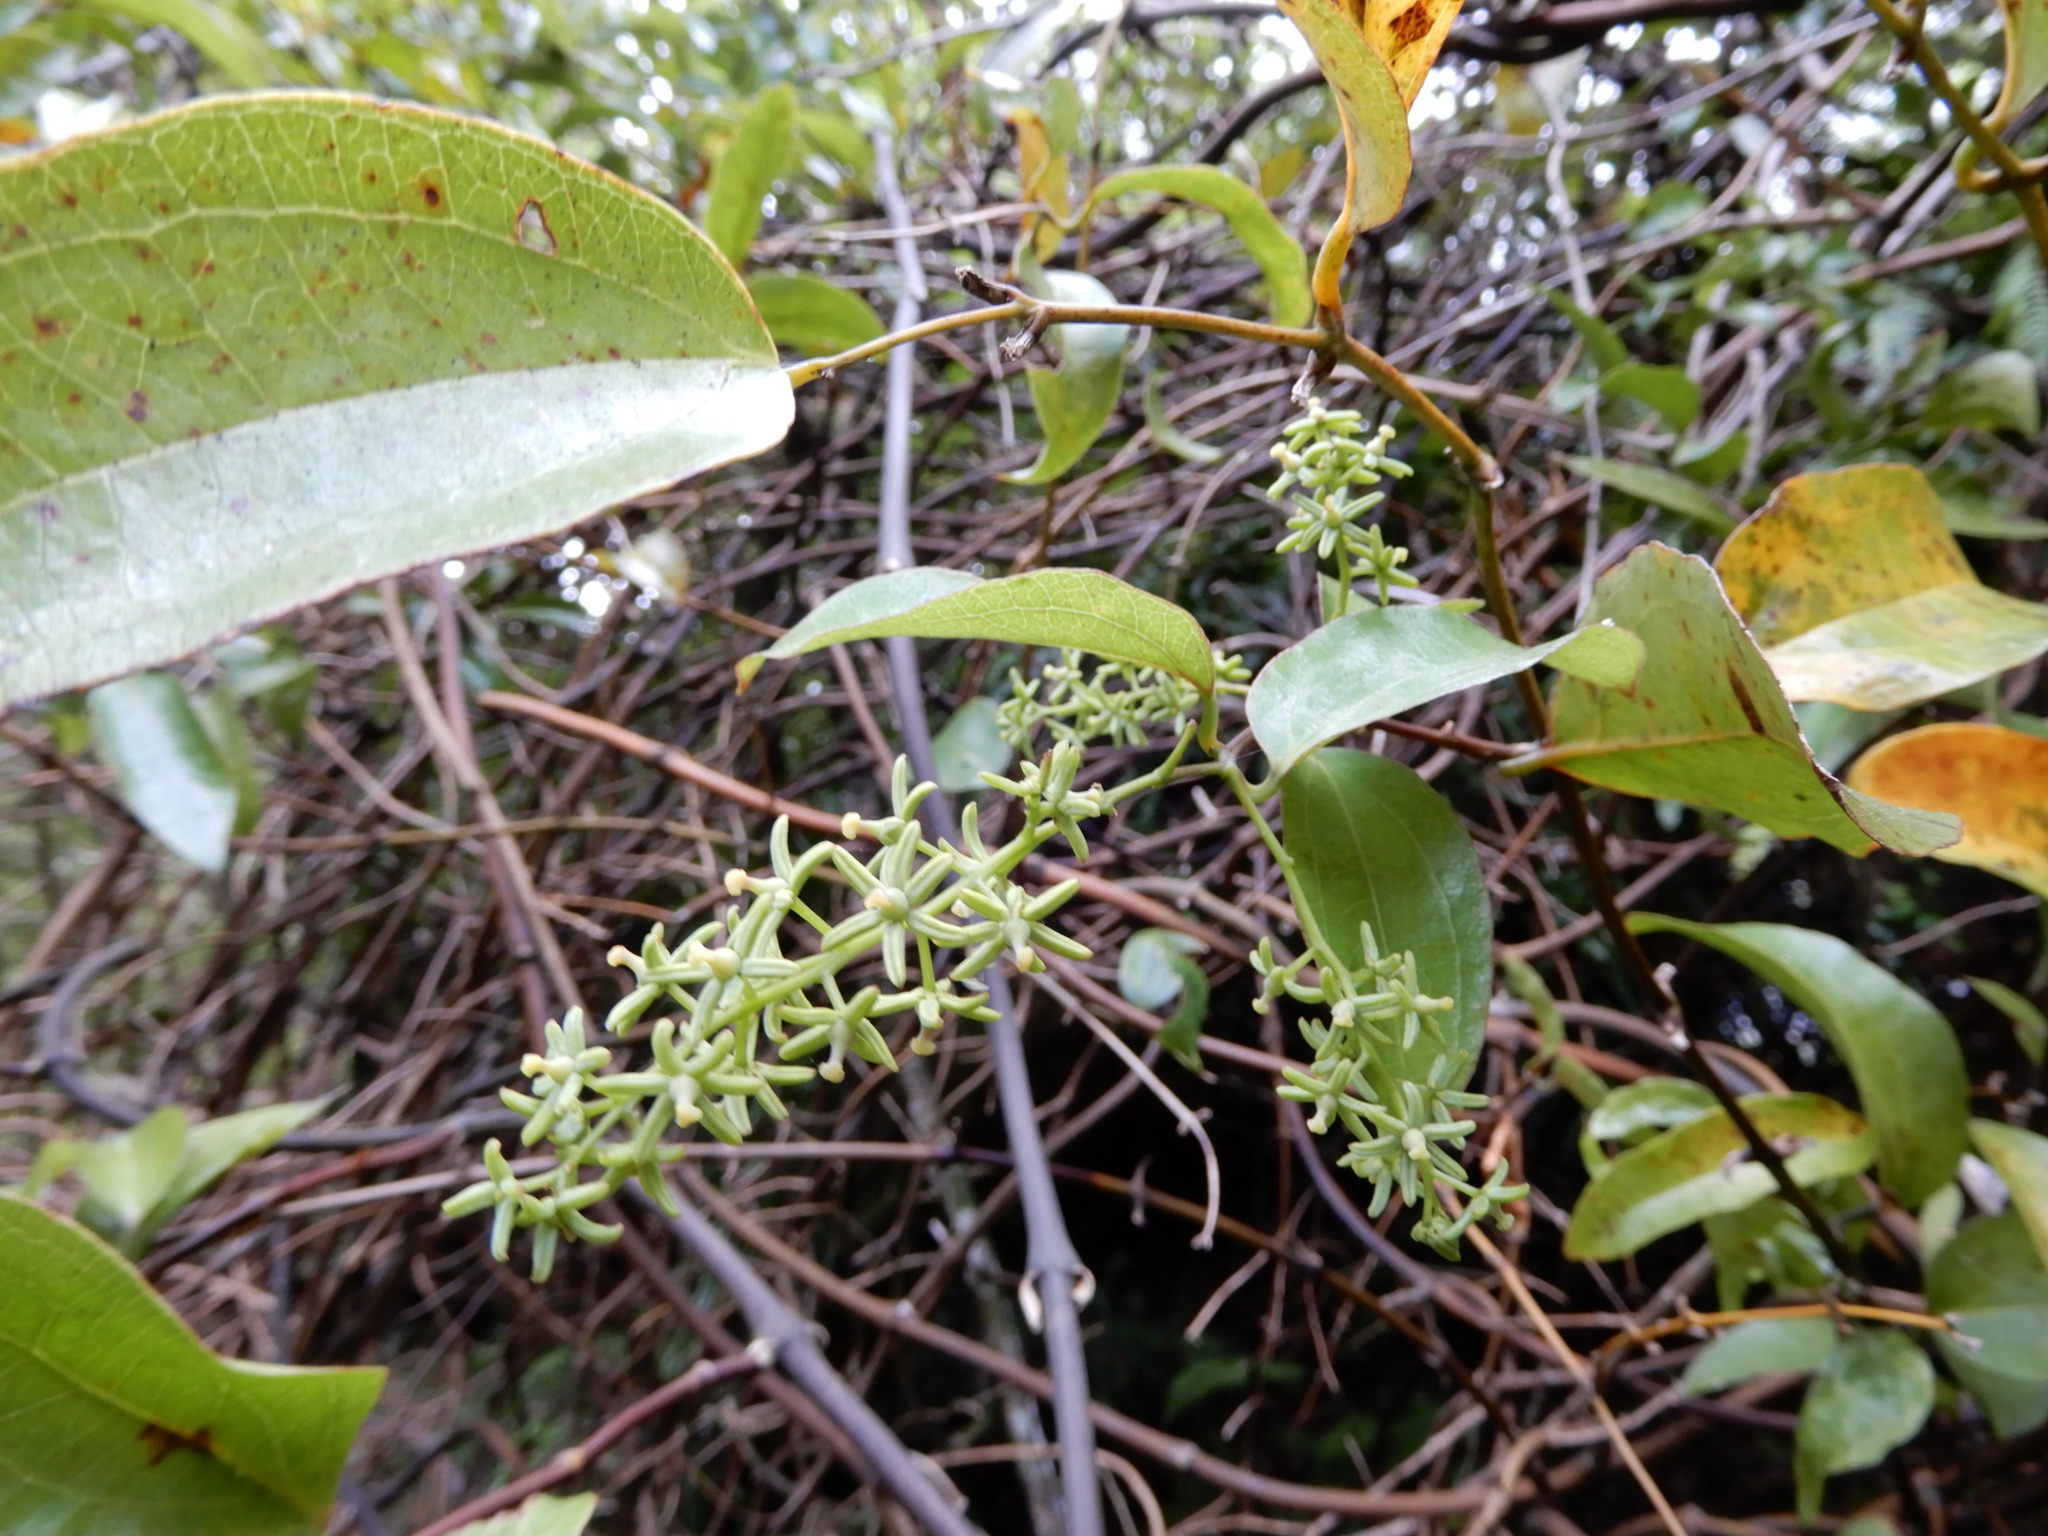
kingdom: Plantae
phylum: Tracheophyta
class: Liliopsida
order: Liliales
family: Ripogonaceae
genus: Ripogonum
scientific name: Ripogonum scandens
